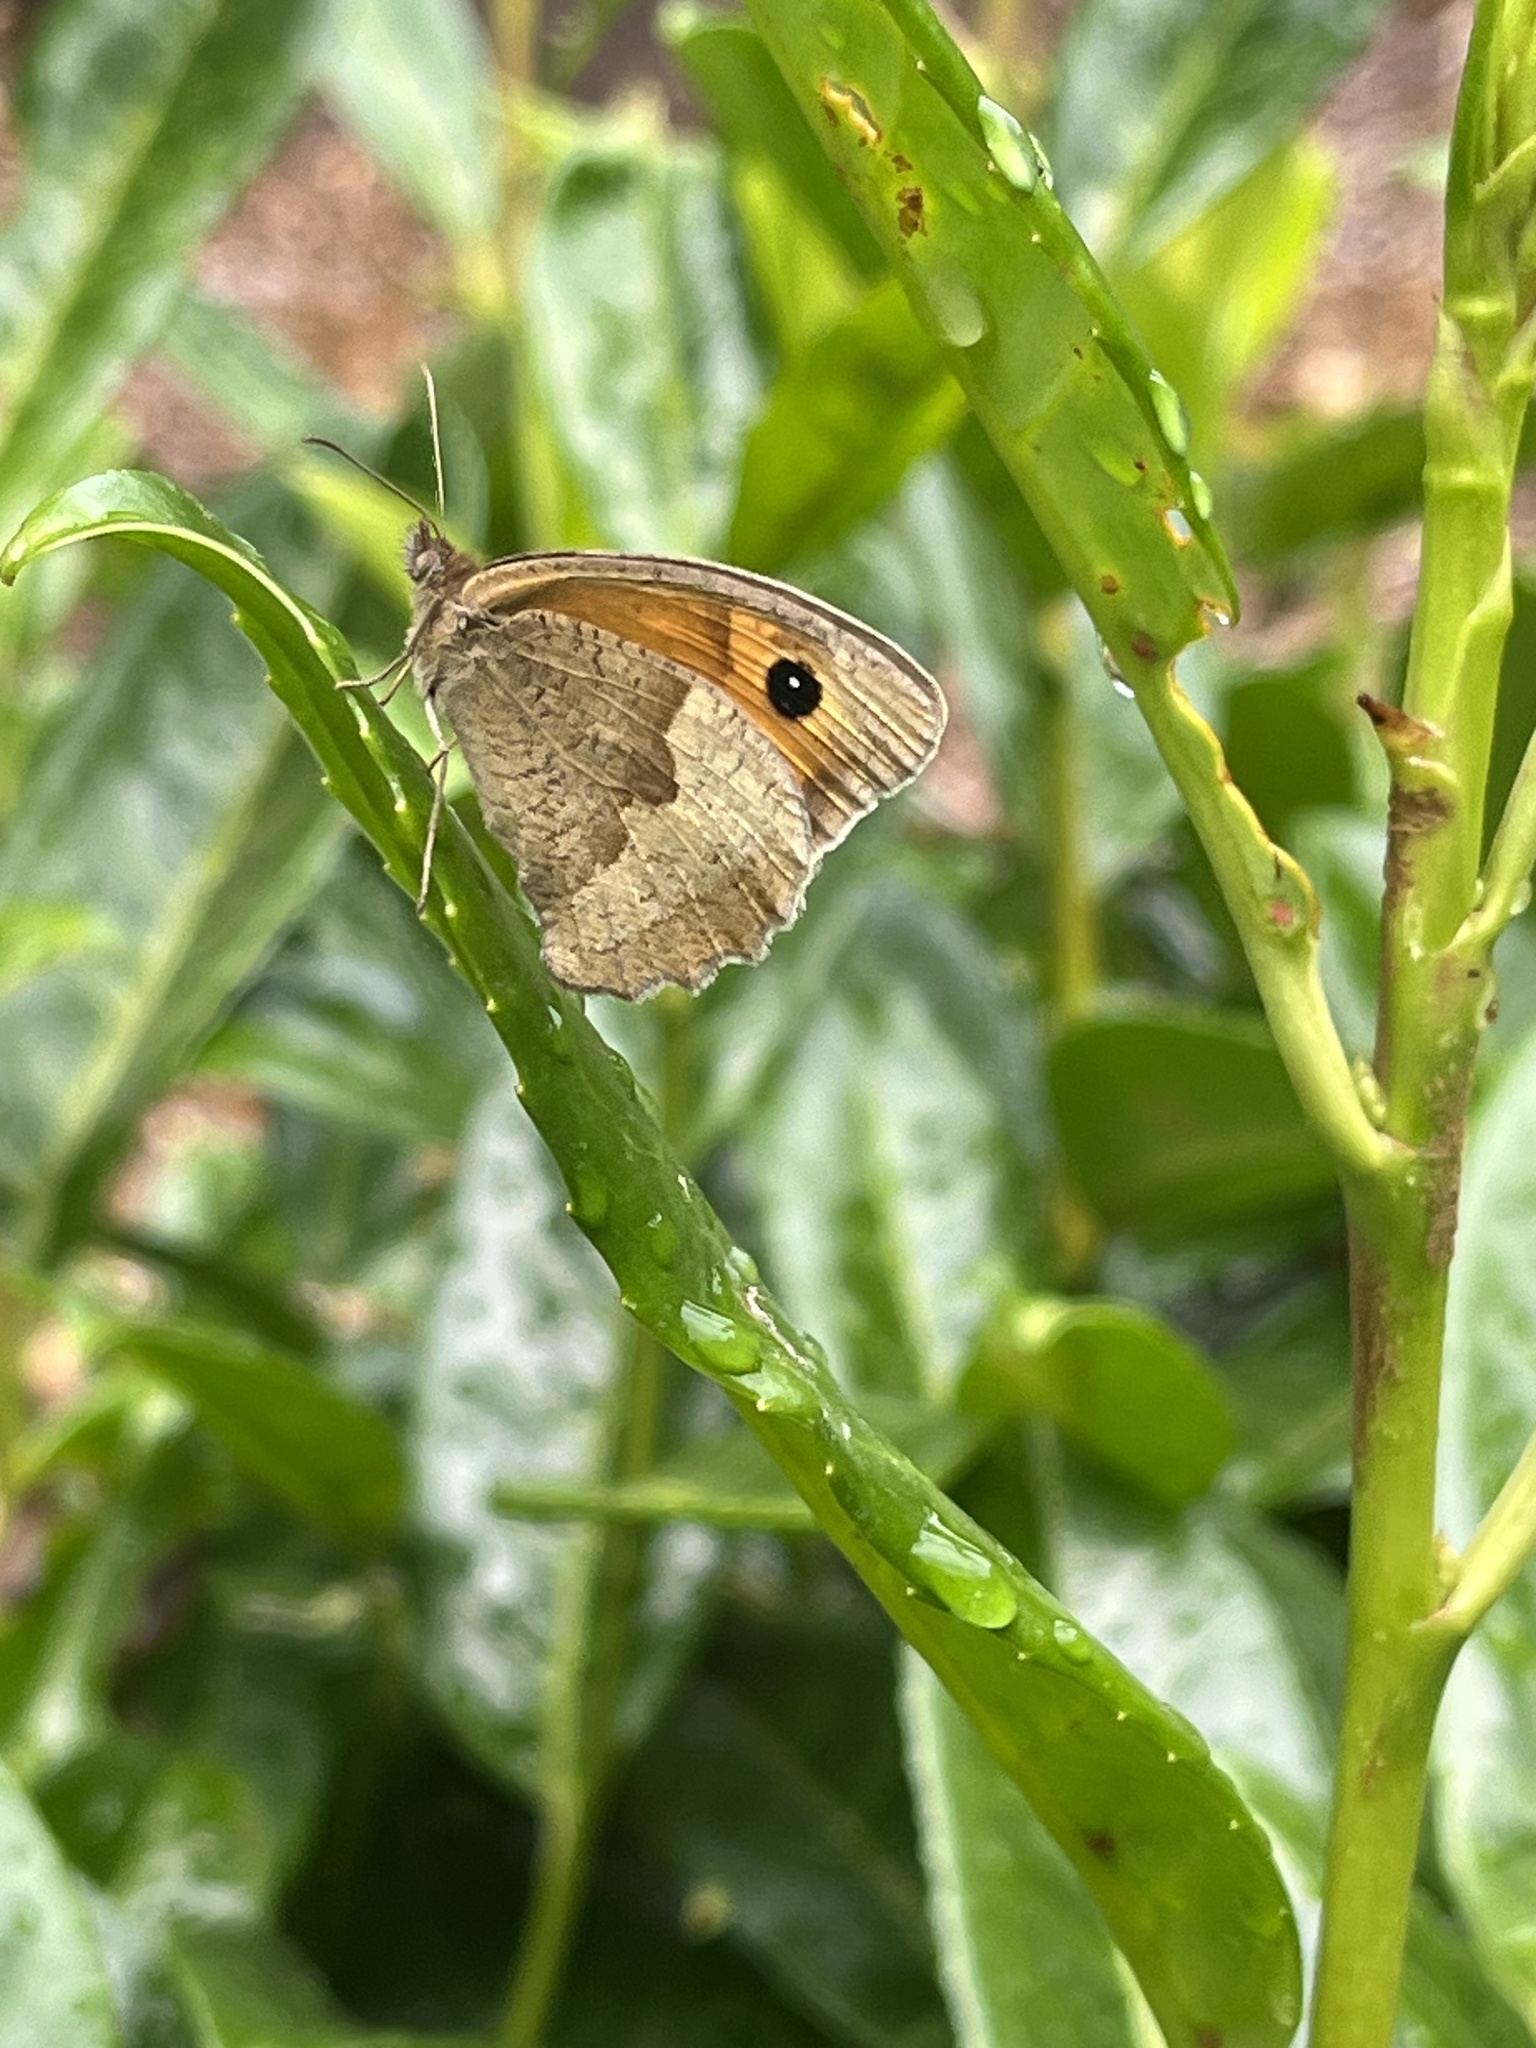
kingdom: Animalia
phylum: Arthropoda
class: Insecta
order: Lepidoptera
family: Nymphalidae
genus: Maniola
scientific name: Maniola jurtina
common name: Meadow brown
